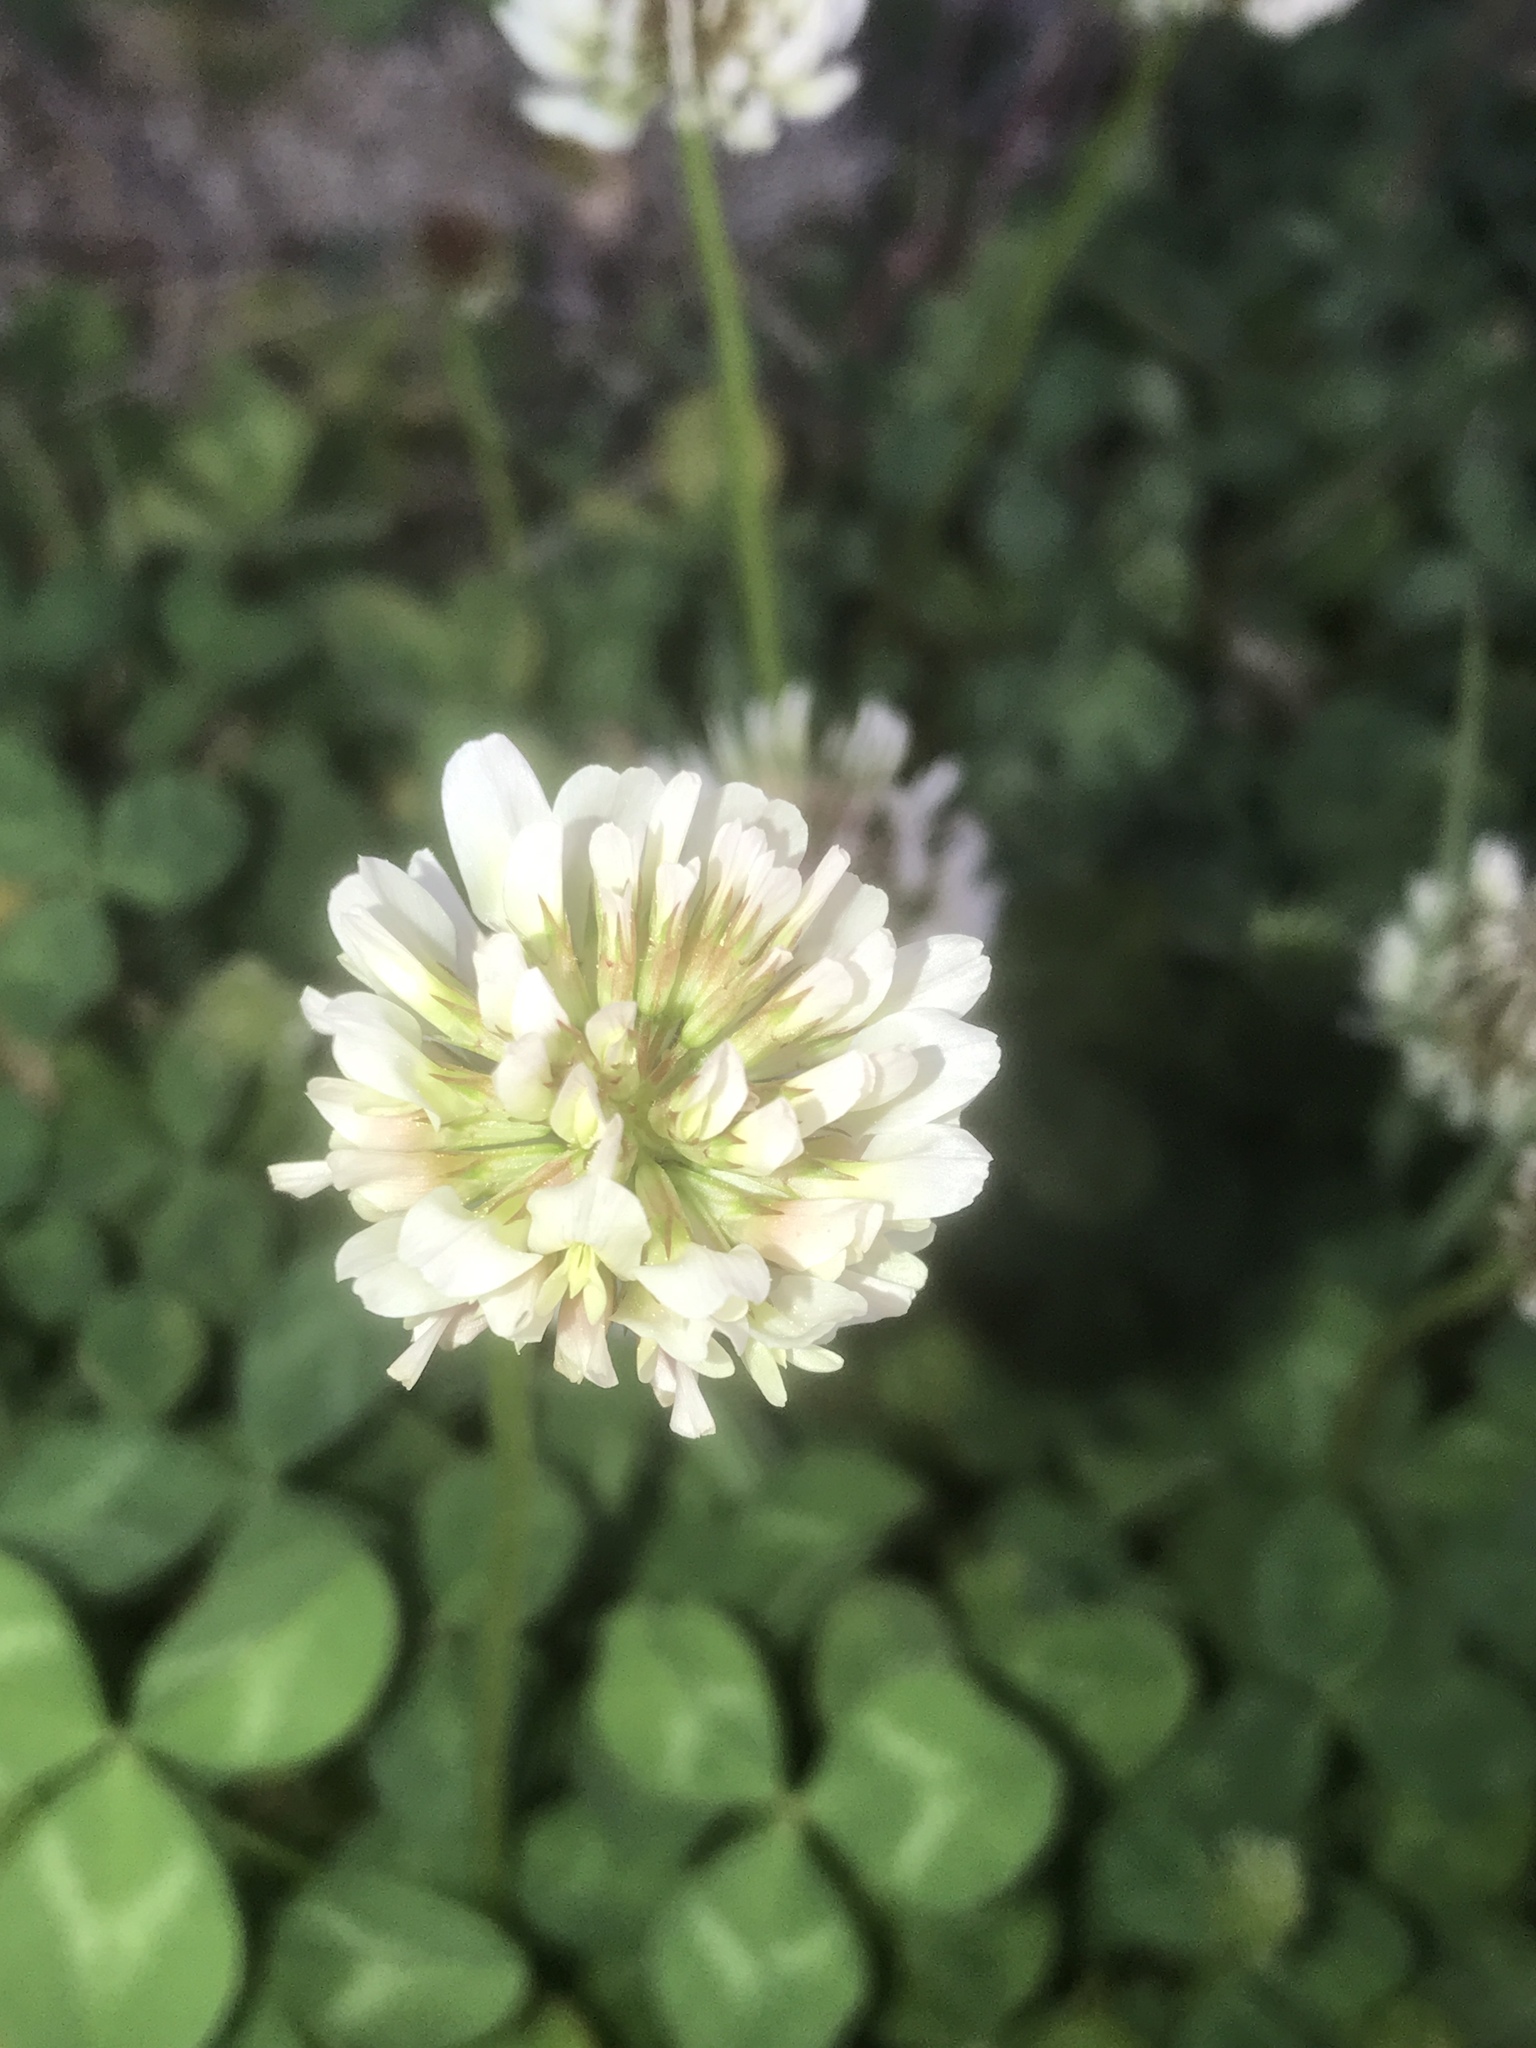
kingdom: Plantae
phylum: Tracheophyta
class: Magnoliopsida
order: Fabales
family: Fabaceae
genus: Trifolium
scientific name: Trifolium repens
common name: White clover
